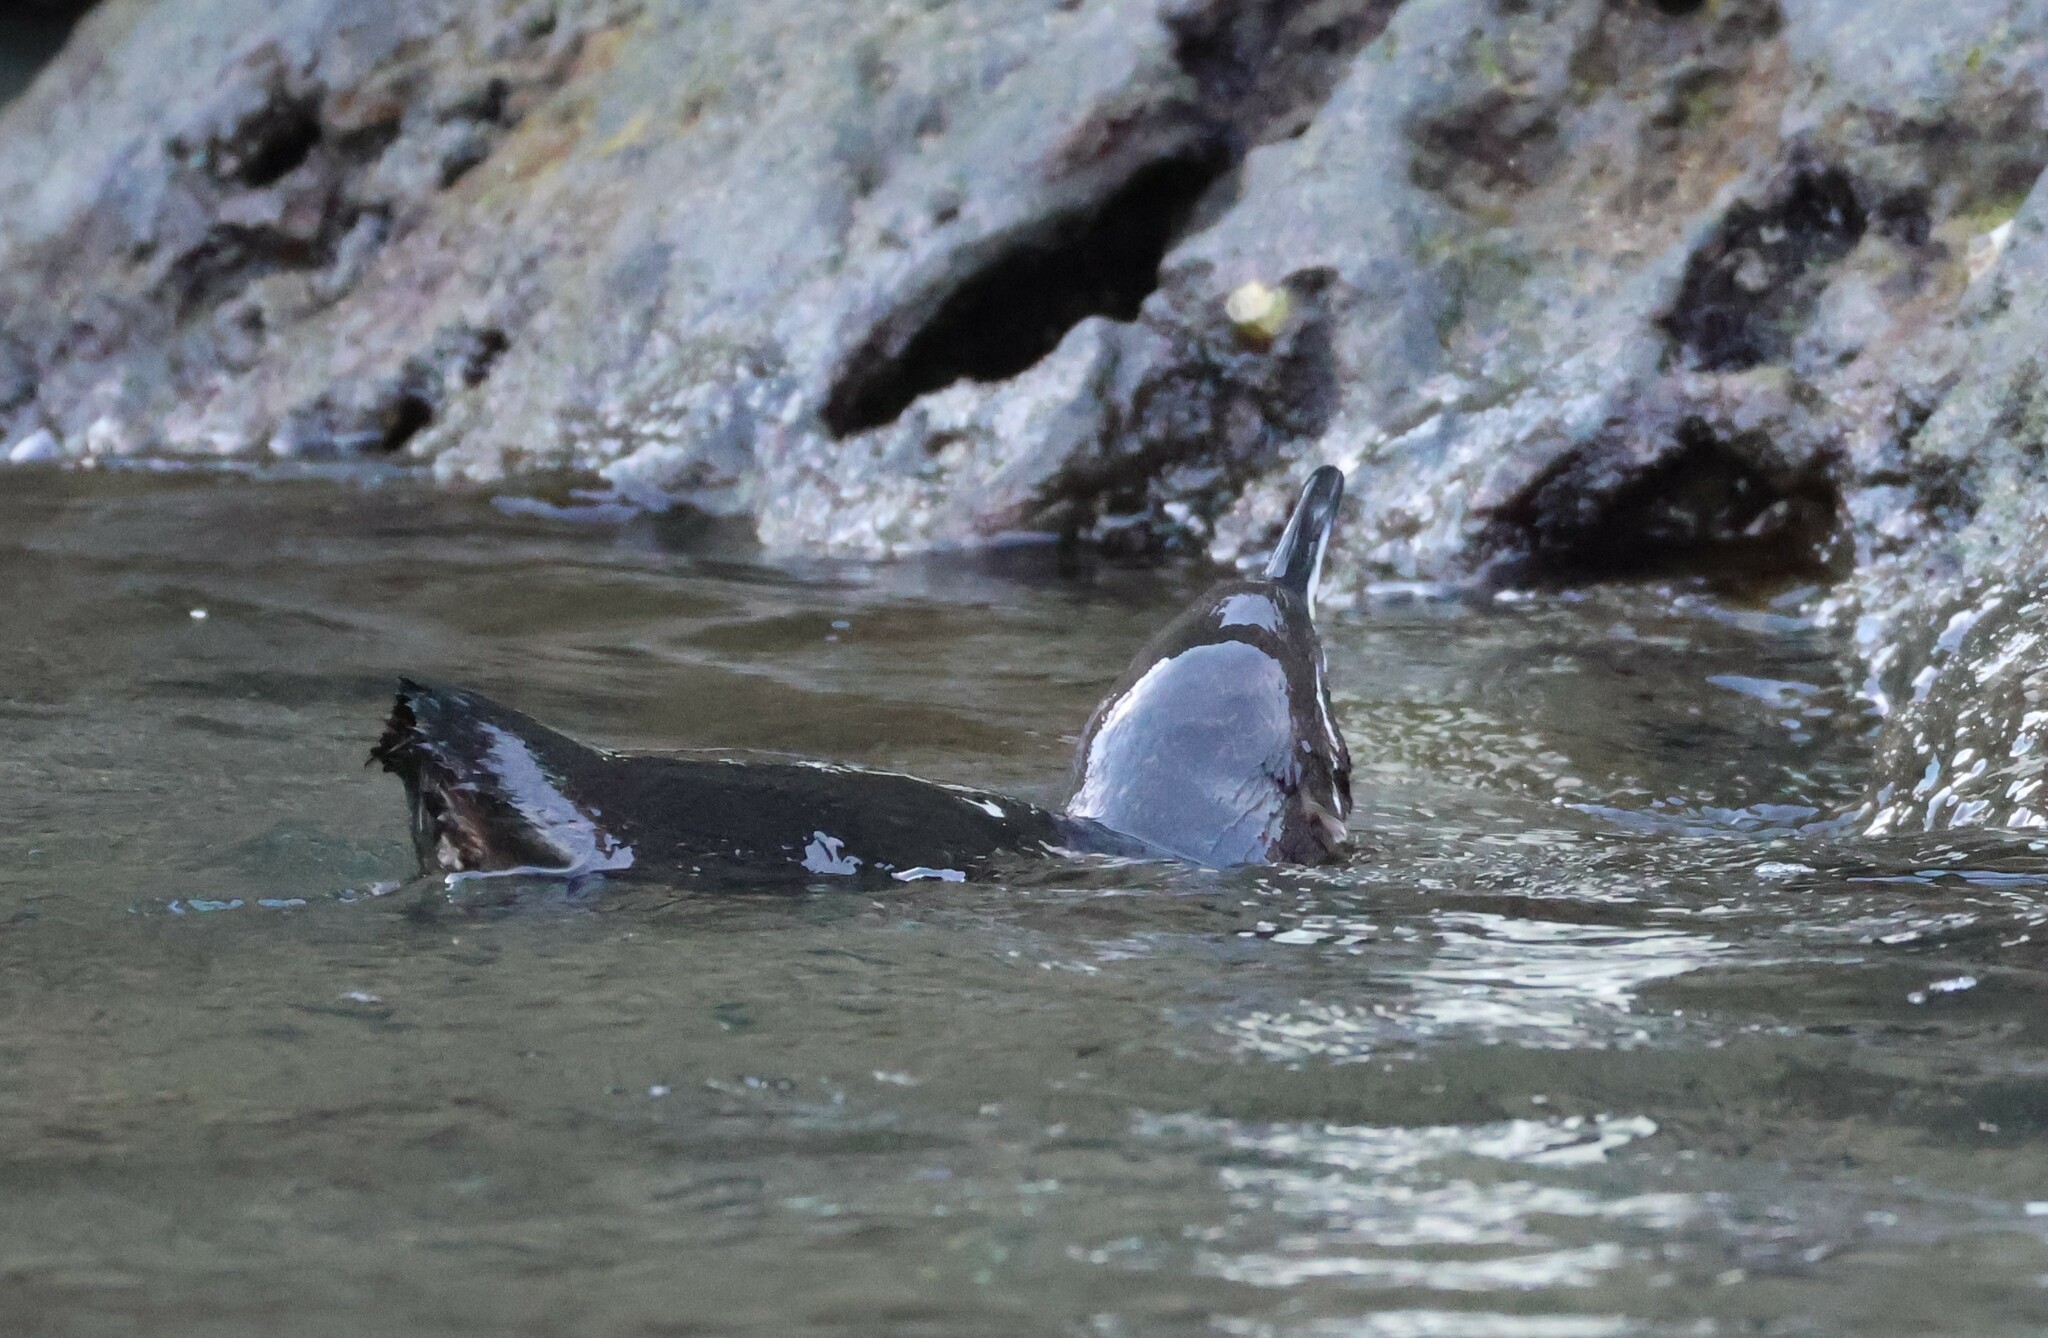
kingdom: Animalia
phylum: Chordata
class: Aves
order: Sphenisciformes
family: Spheniscidae
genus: Spheniscus
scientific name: Spheniscus mendiculus
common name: Galapagos penguin
